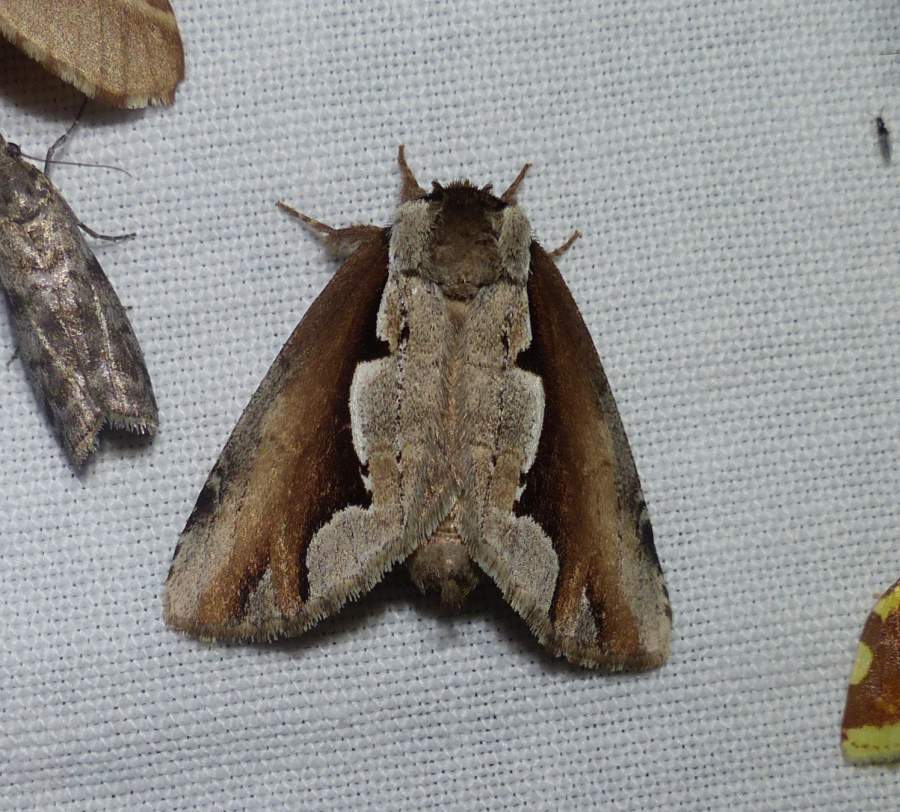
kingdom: Animalia
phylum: Arthropoda
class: Insecta
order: Lepidoptera
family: Notodontidae
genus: Nerice
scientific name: Nerice bidentata
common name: Double-toothed prominent
